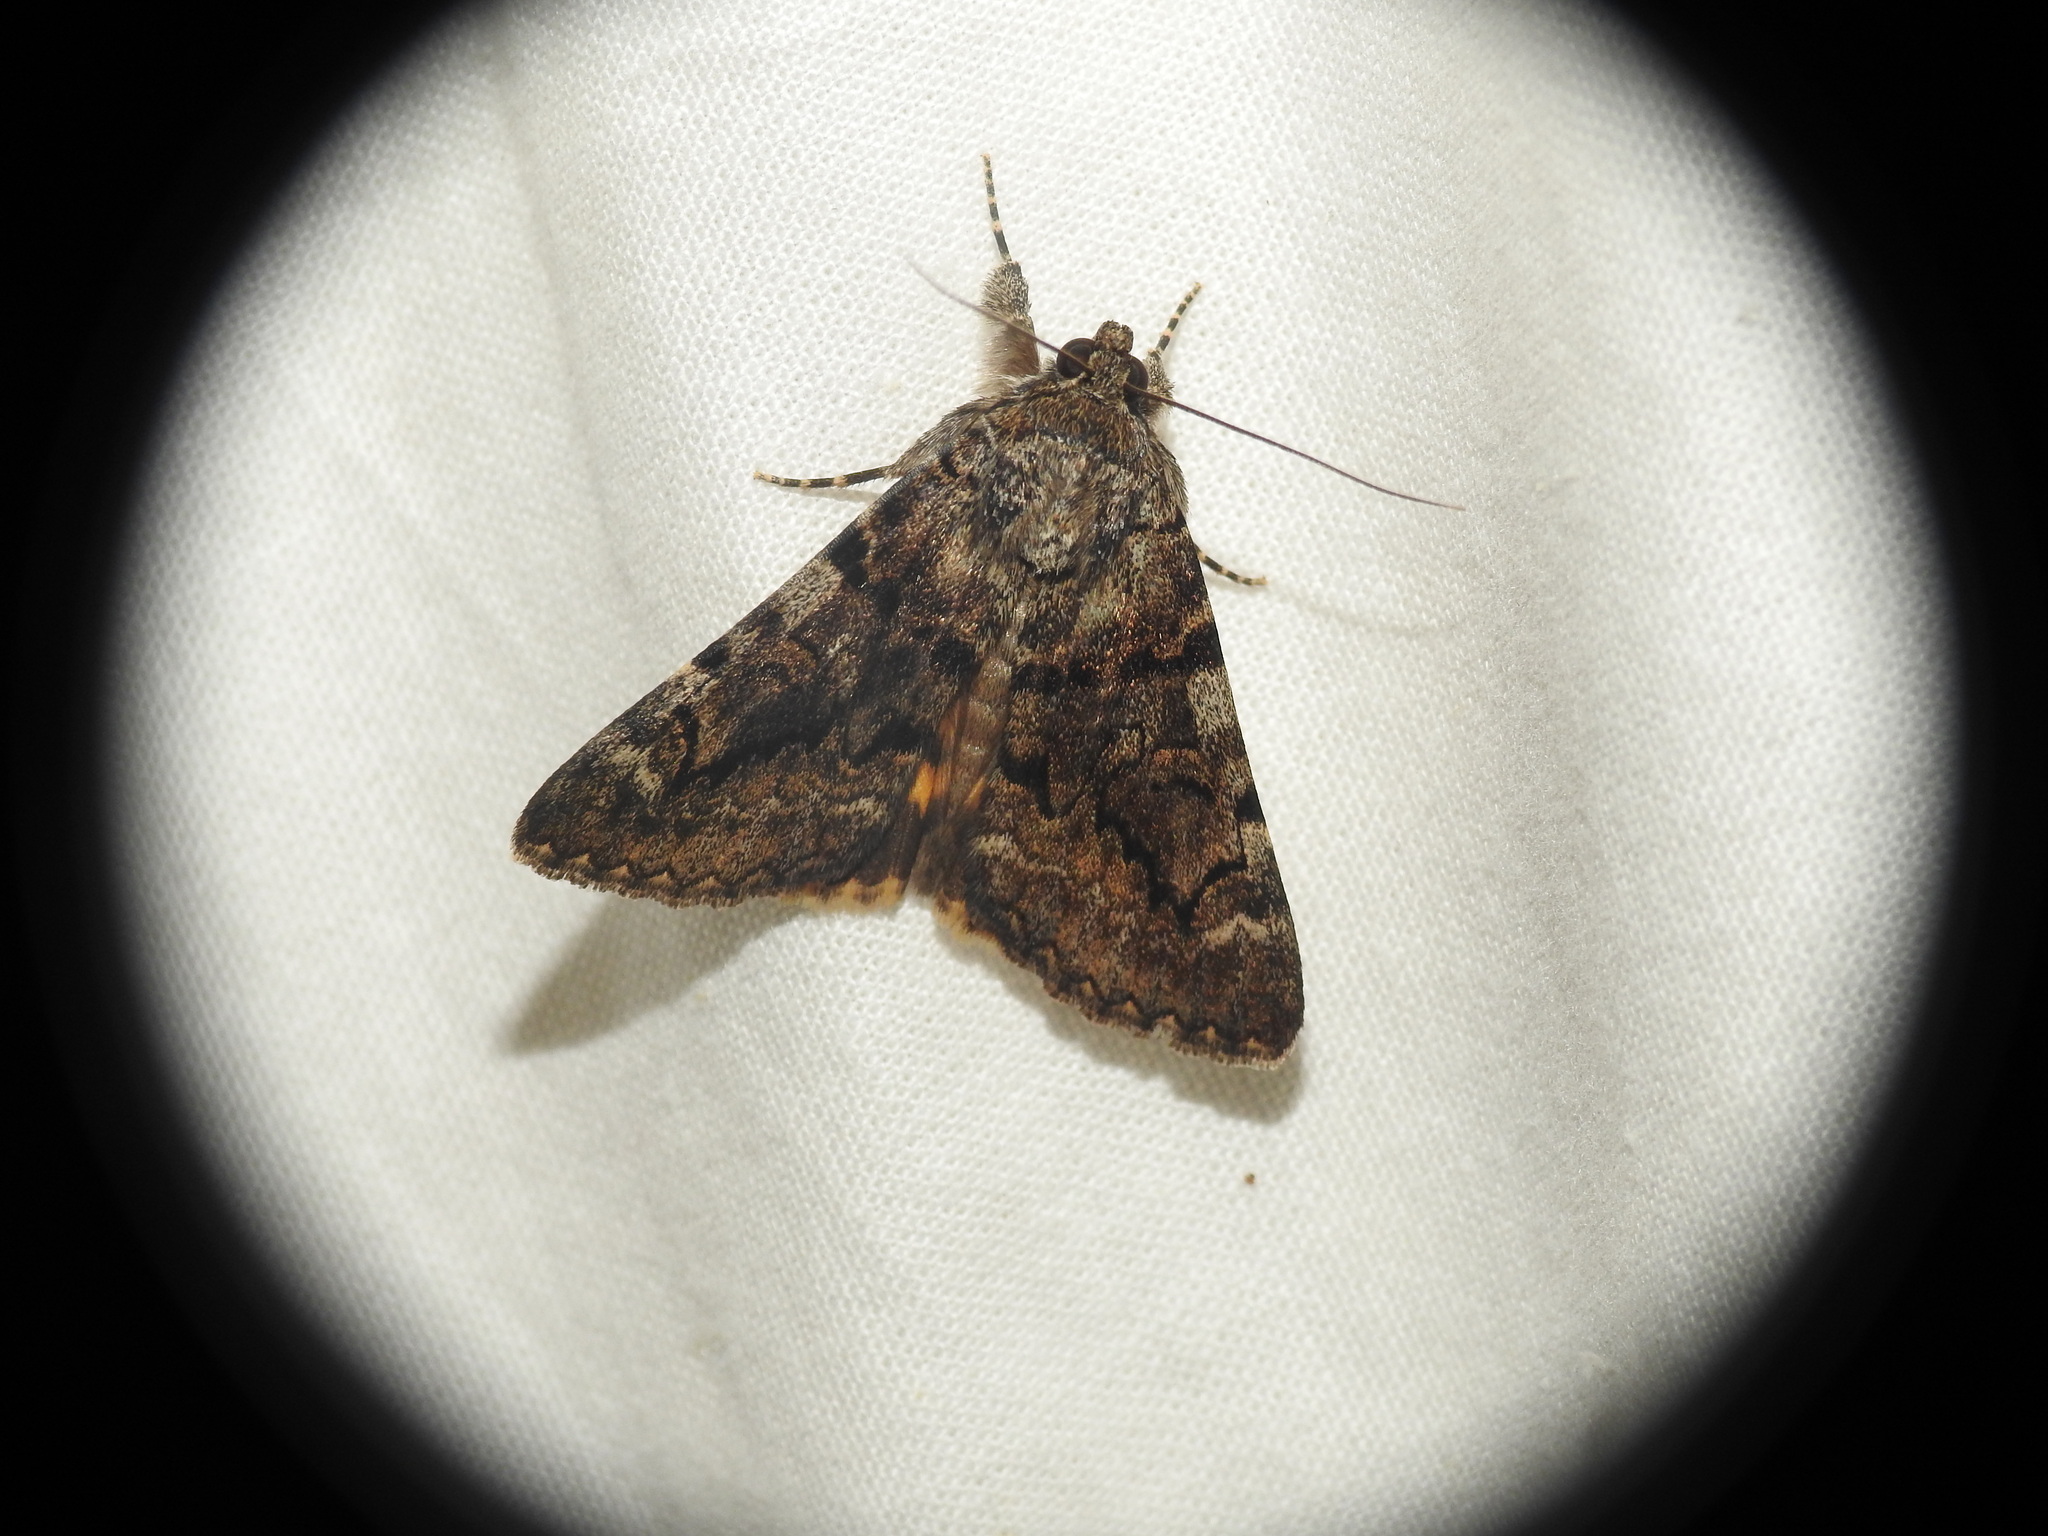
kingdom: Animalia
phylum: Arthropoda
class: Insecta
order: Lepidoptera
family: Erebidae
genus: Catocala
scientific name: Catocala nymphagoga
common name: Oak yellow underwing
